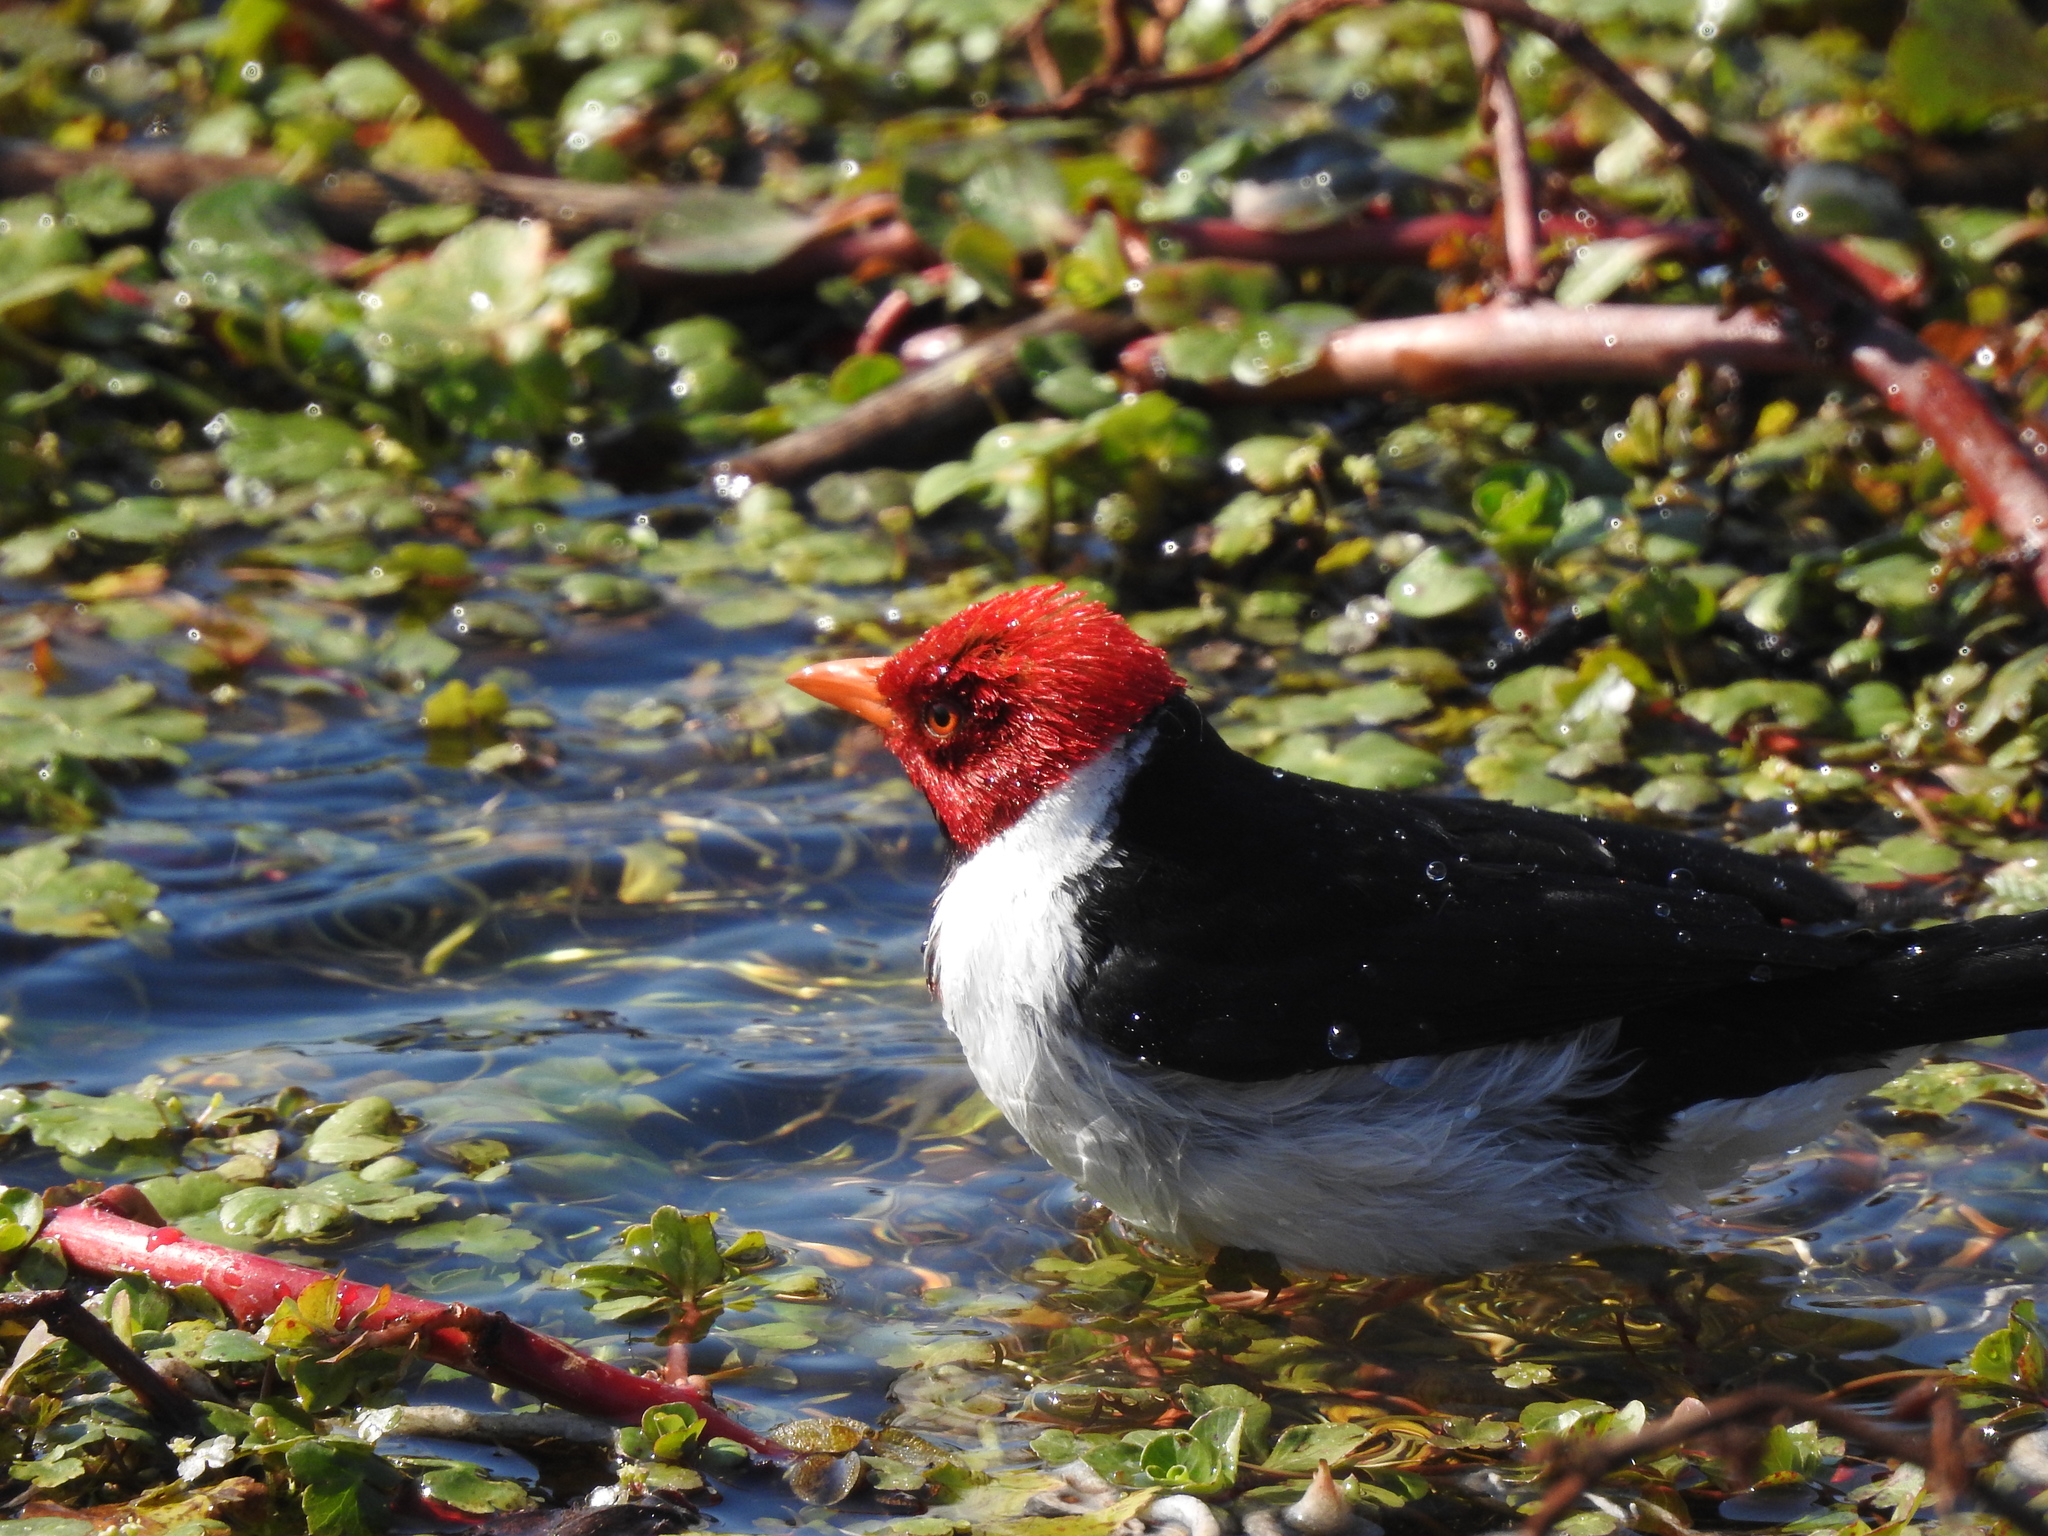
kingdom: Animalia
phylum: Chordata
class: Aves
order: Passeriformes
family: Thraupidae
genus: Paroaria
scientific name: Paroaria capitata
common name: Yellow-billed cardinal
